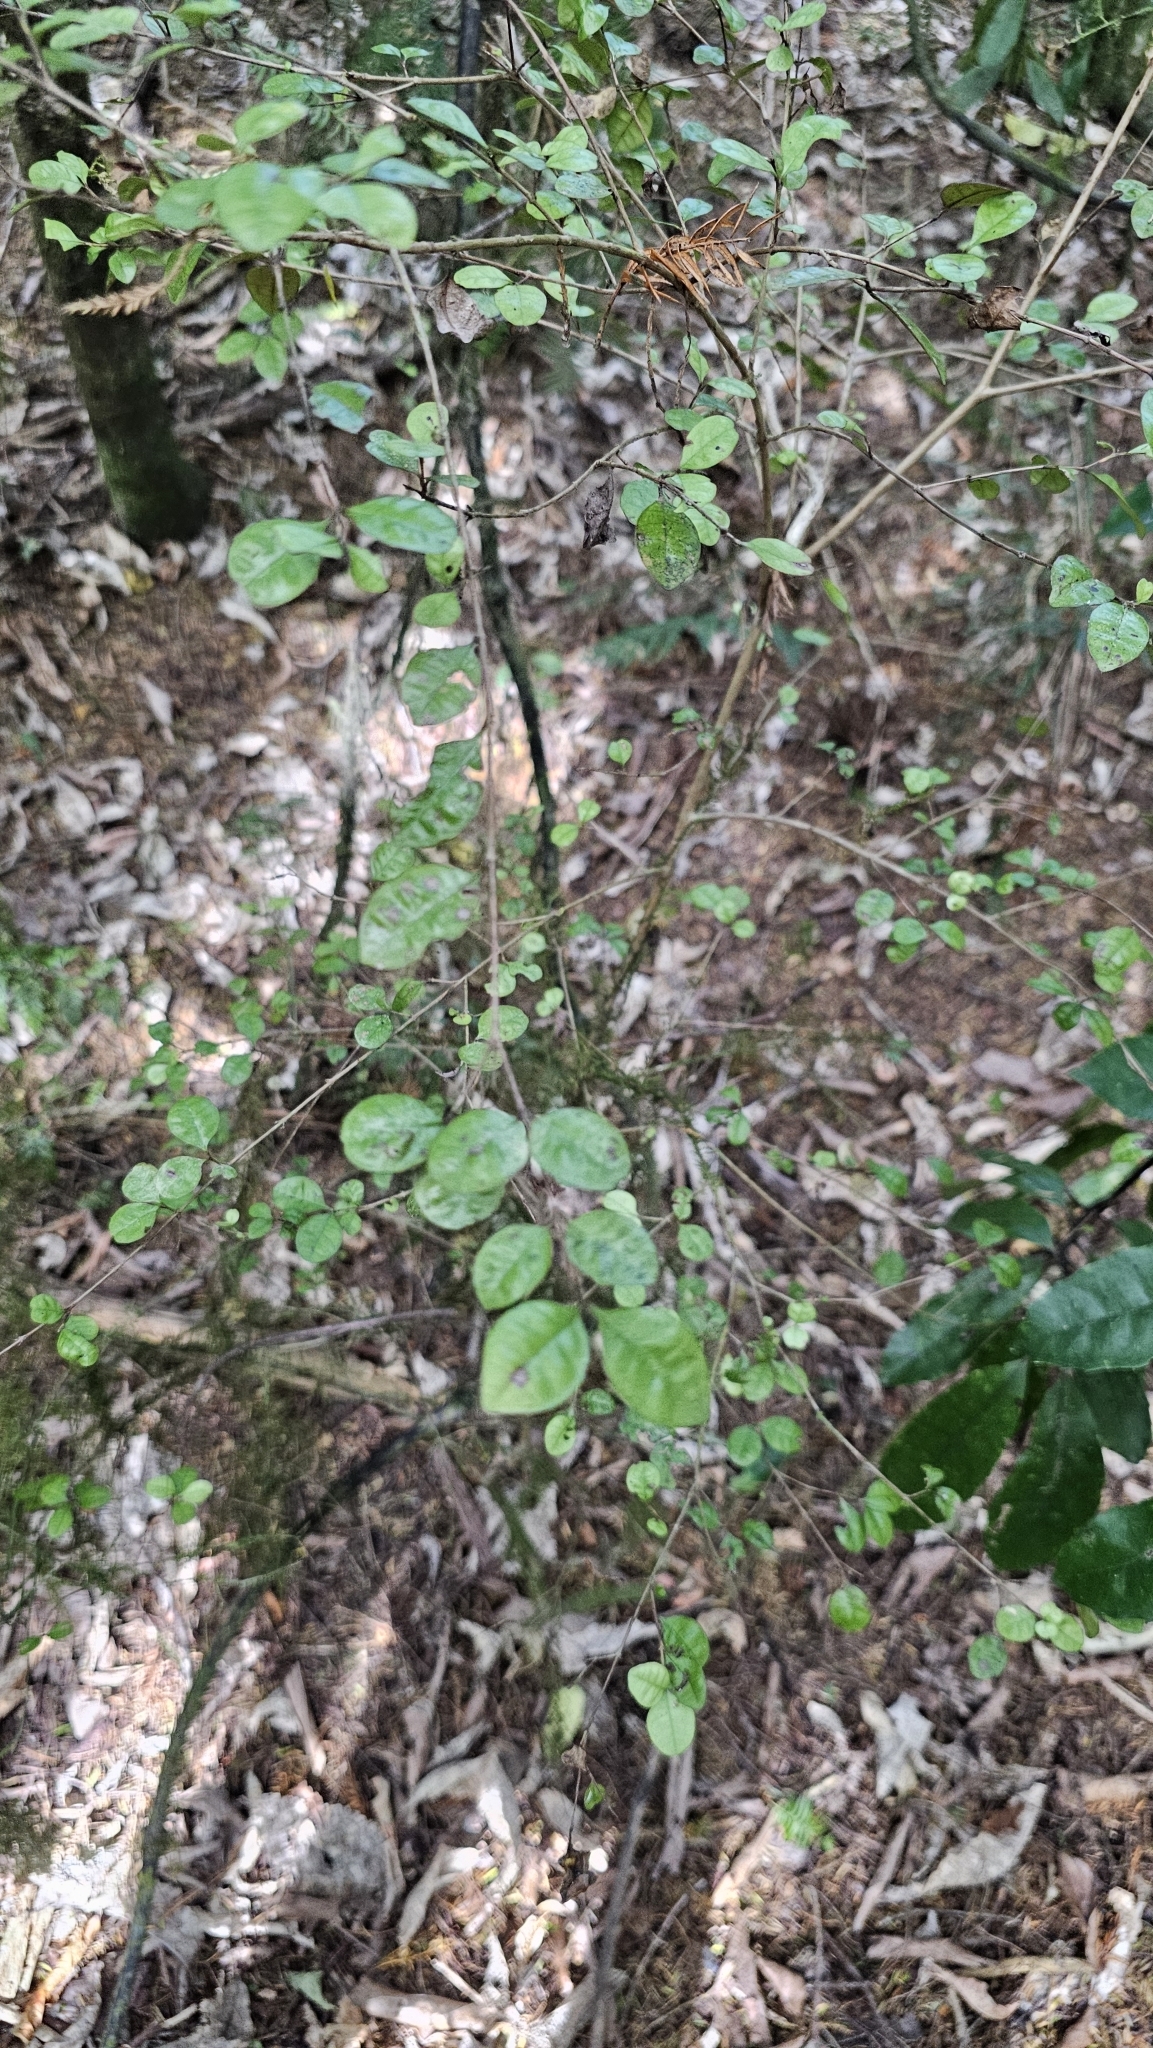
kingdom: Plantae
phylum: Tracheophyta
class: Magnoliopsida
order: Myrtales
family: Myrtaceae
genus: Lophomyrtus
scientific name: Lophomyrtus ralphii
